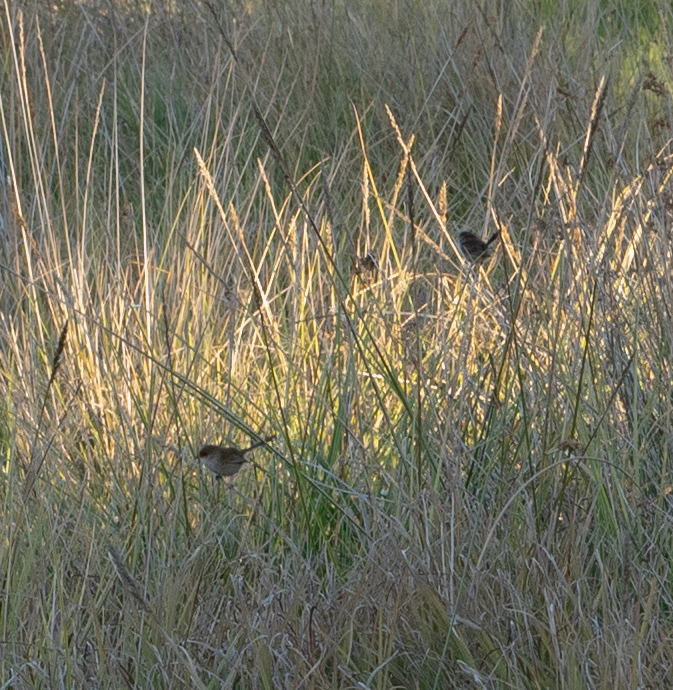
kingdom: Animalia
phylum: Chordata
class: Aves
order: Passeriformes
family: Maluridae
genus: Malurus
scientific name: Malurus cyaneus
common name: Superb fairywren
